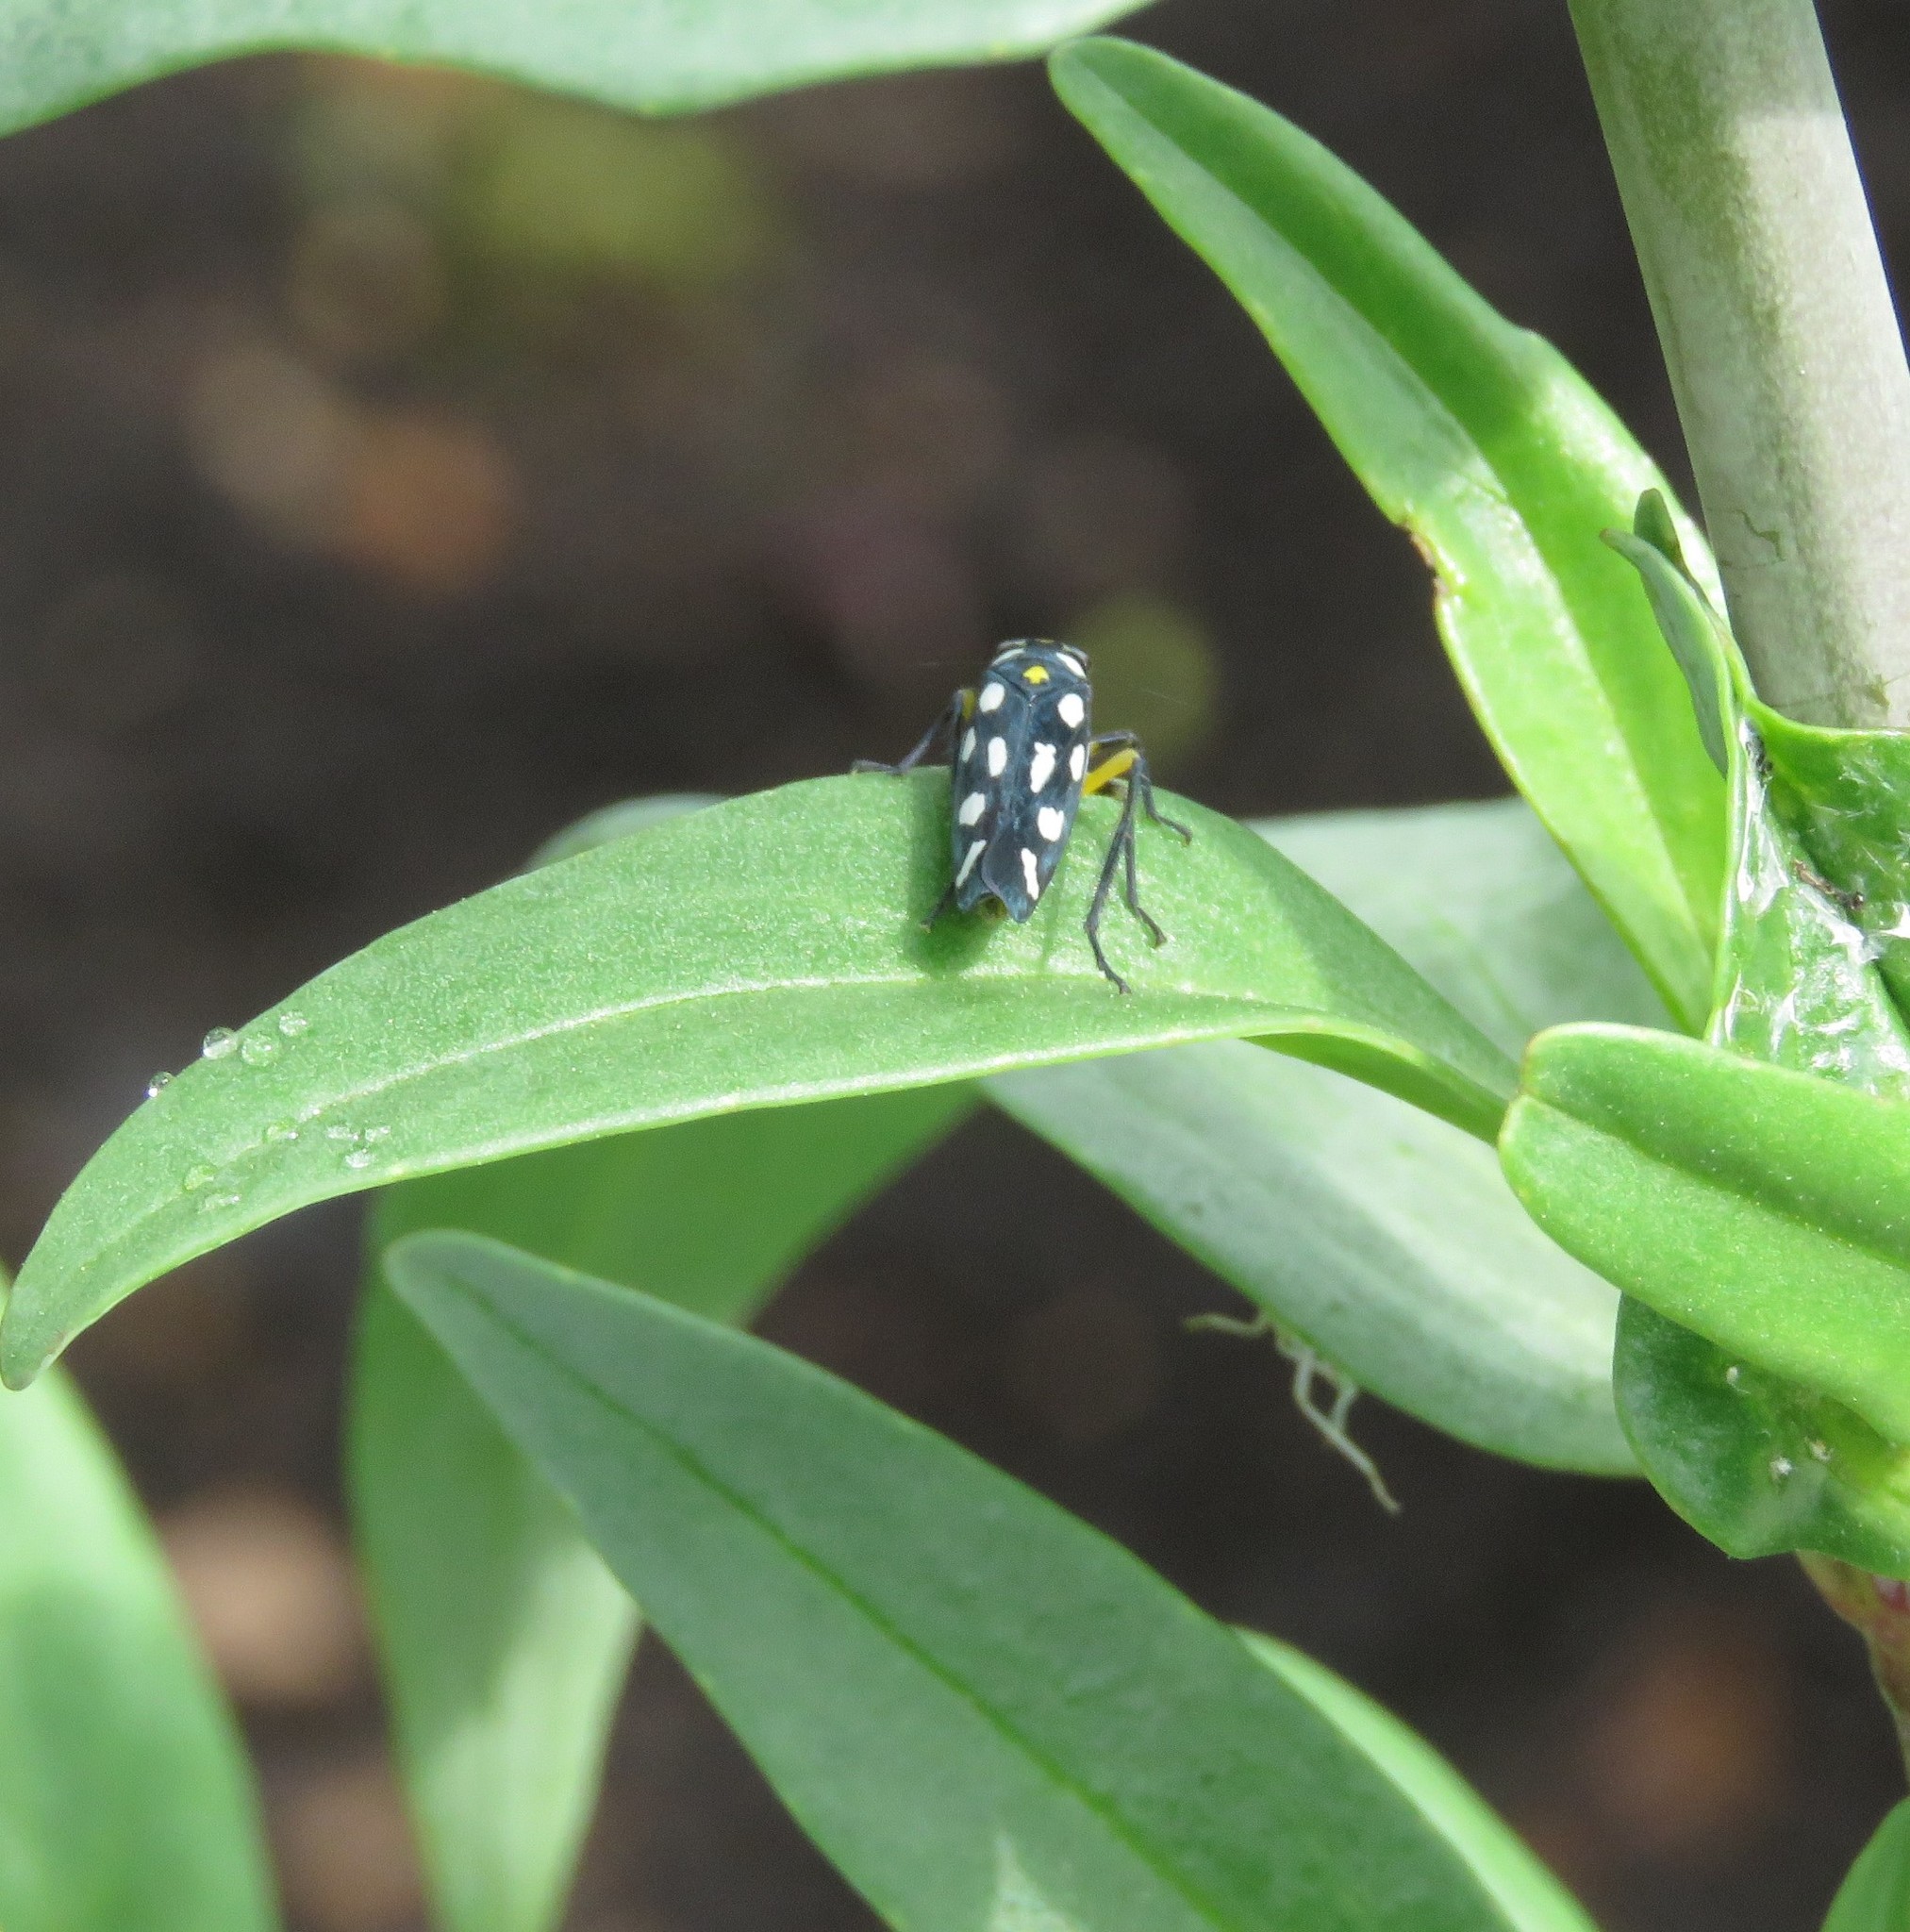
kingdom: Animalia
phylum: Arthropoda
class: Insecta
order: Hemiptera
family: Cicadellidae
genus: Stehlikiana
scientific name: Stehlikiana crassa
